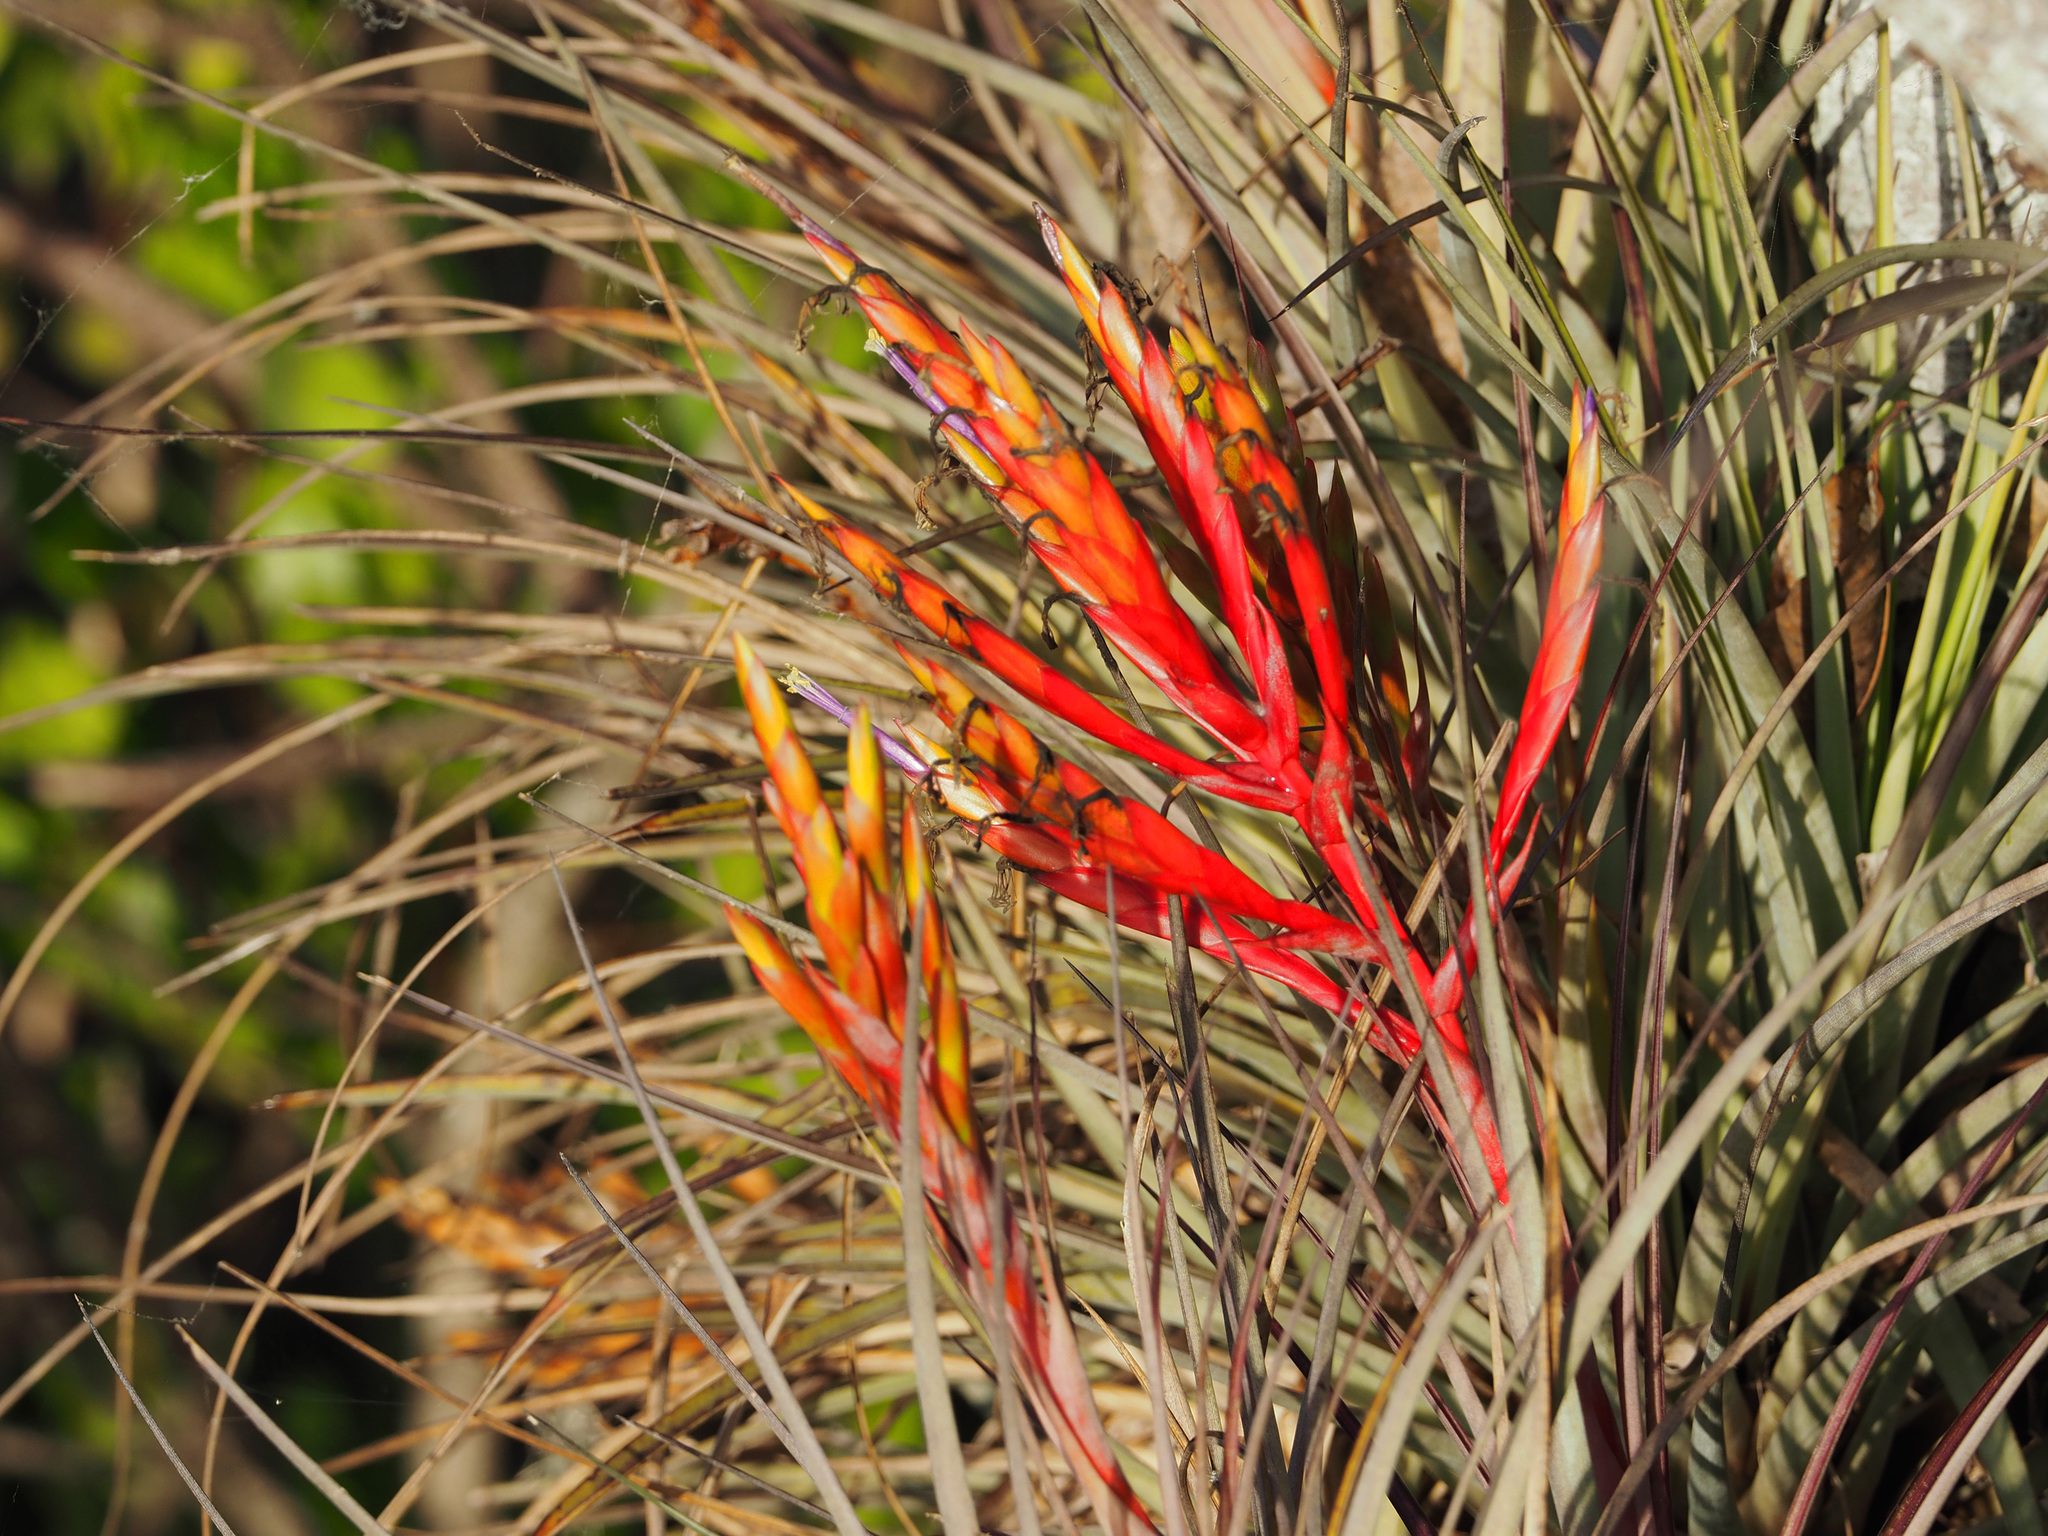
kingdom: Plantae
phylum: Tracheophyta
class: Liliopsida
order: Poales
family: Bromeliaceae
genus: Tillandsia
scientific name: Tillandsia fasciculata
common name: Giant airplant
